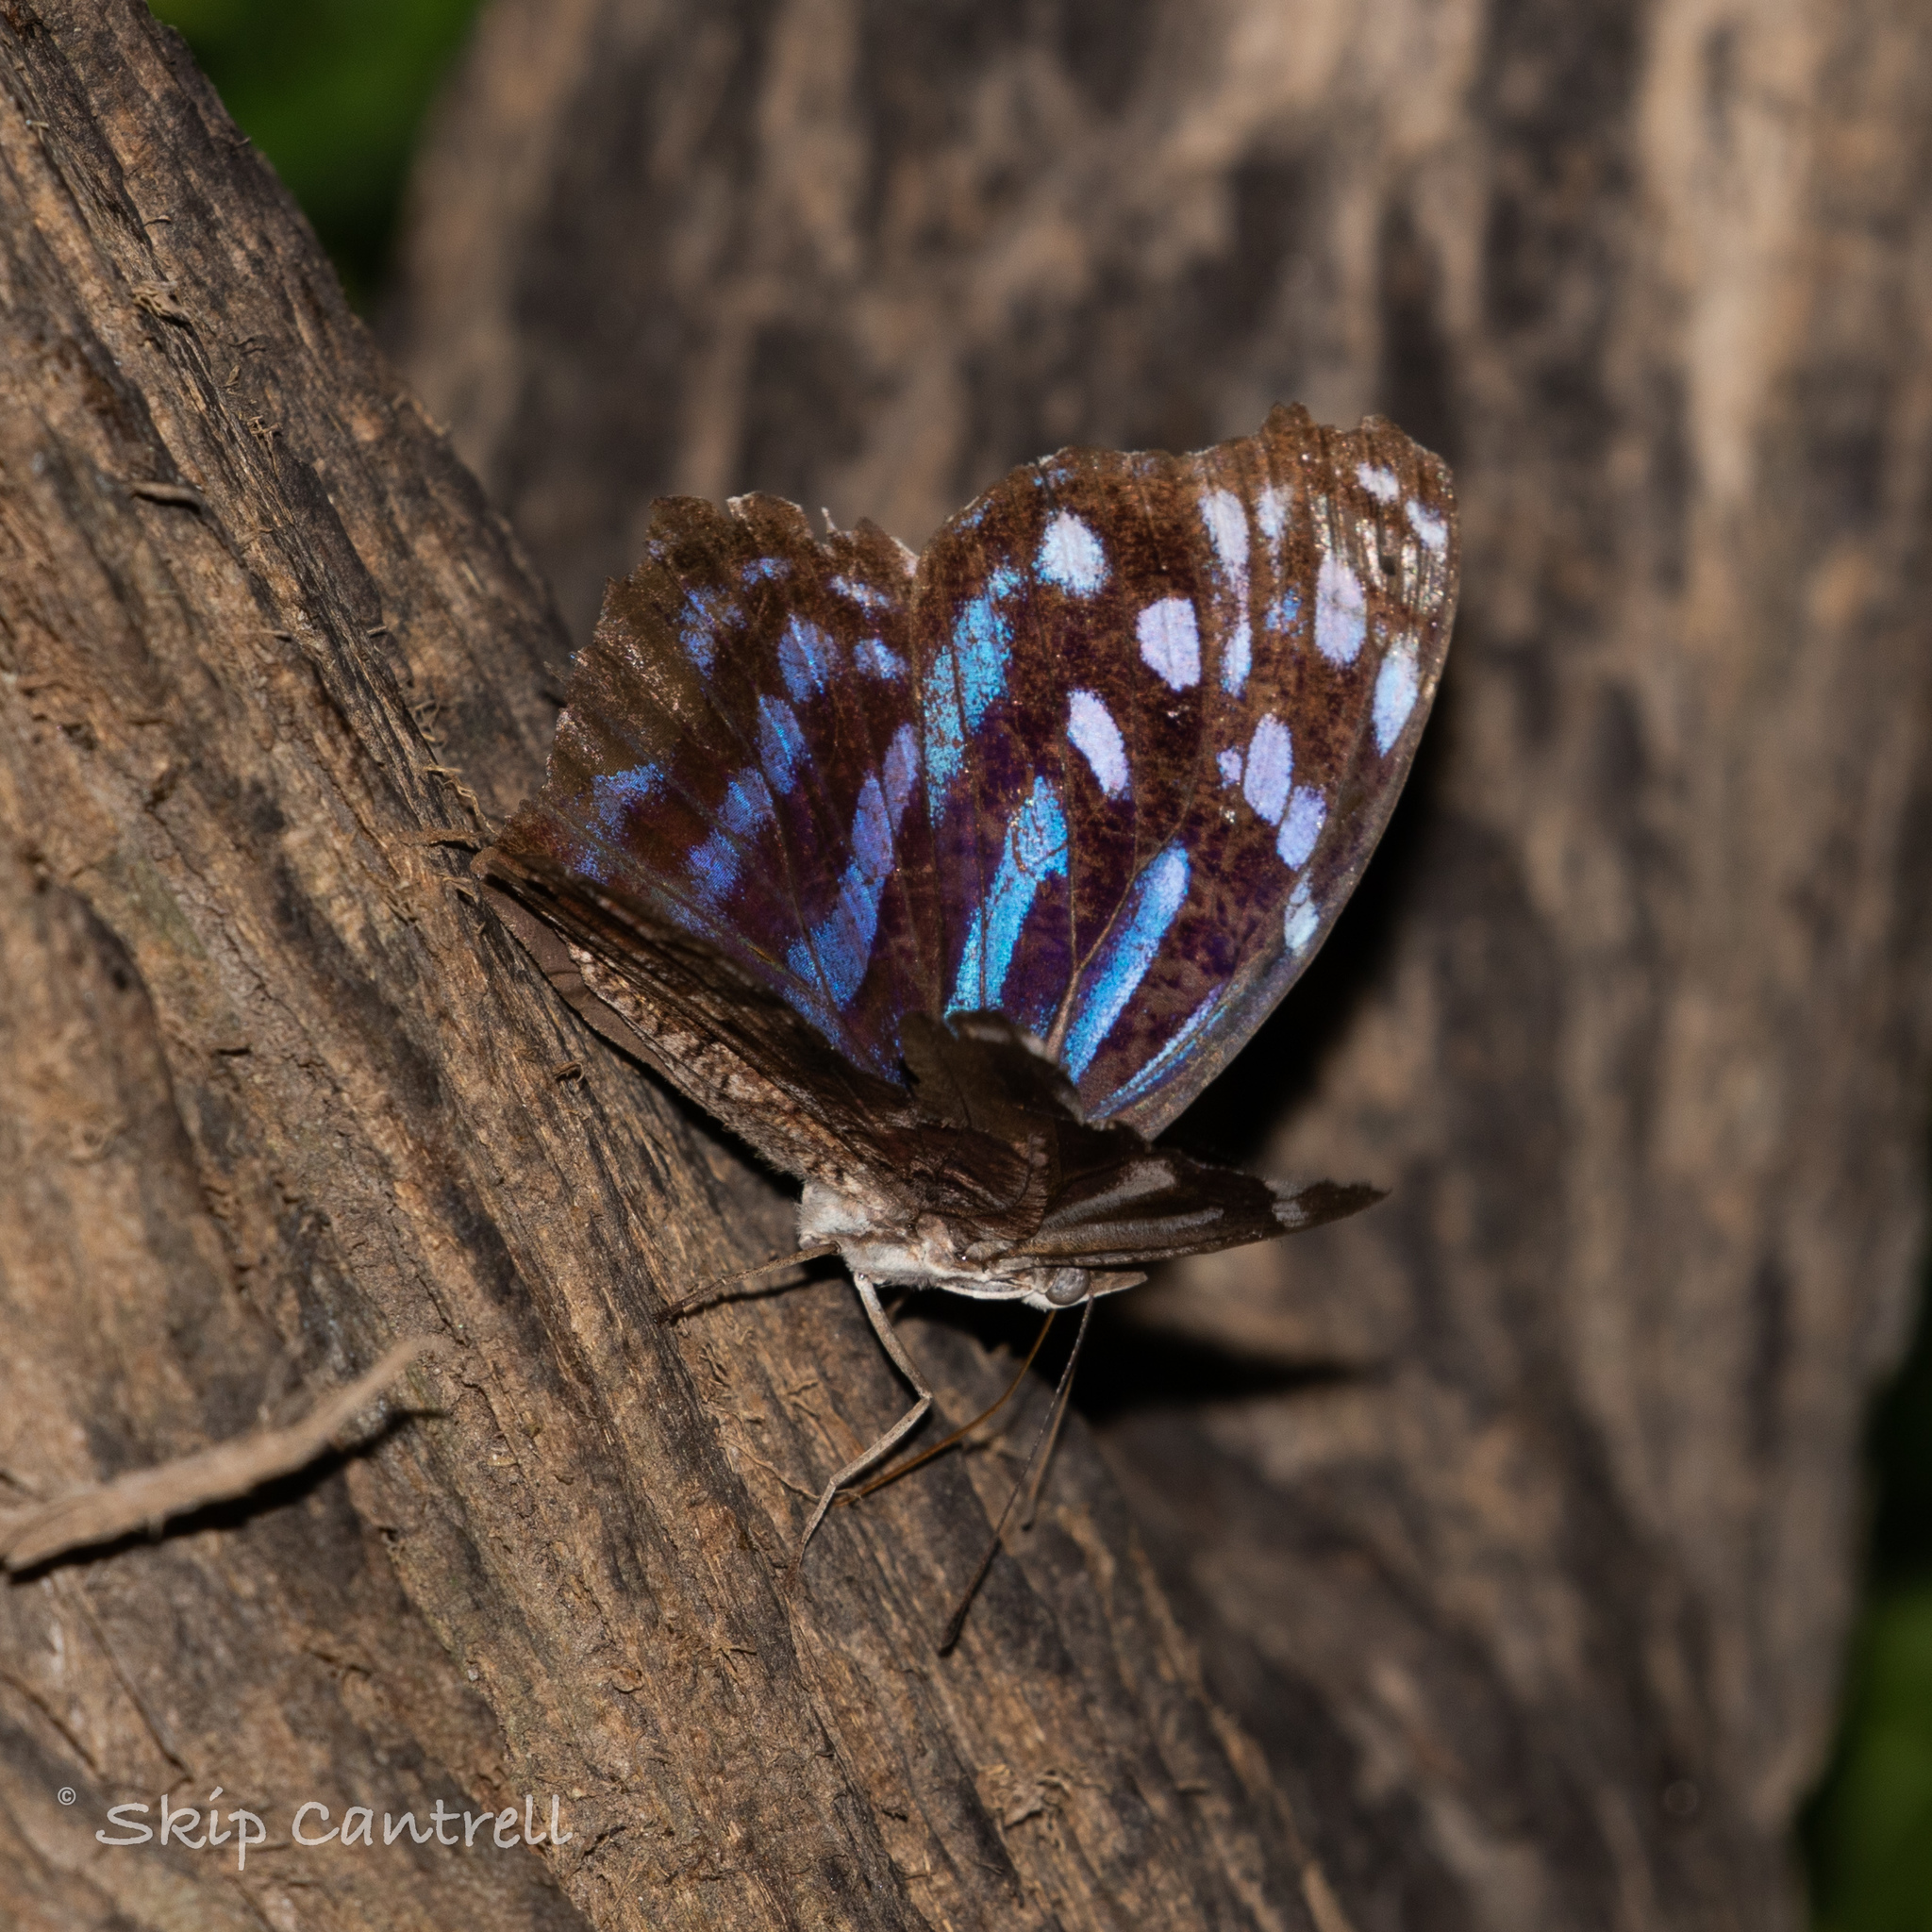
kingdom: Animalia
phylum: Arthropoda
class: Insecta
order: Lepidoptera
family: Nymphalidae
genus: Myscelia
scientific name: Myscelia ethusa
